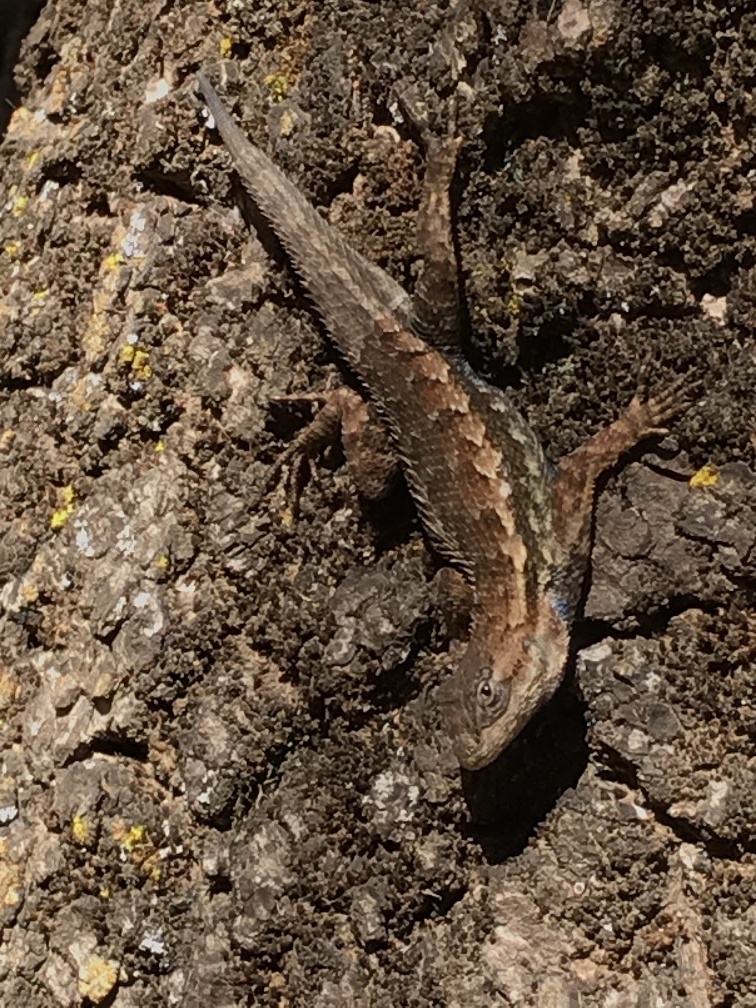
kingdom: Animalia
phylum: Chordata
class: Squamata
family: Phrynosomatidae
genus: Sceloporus
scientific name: Sceloporus occidentalis
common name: Western fence lizard
